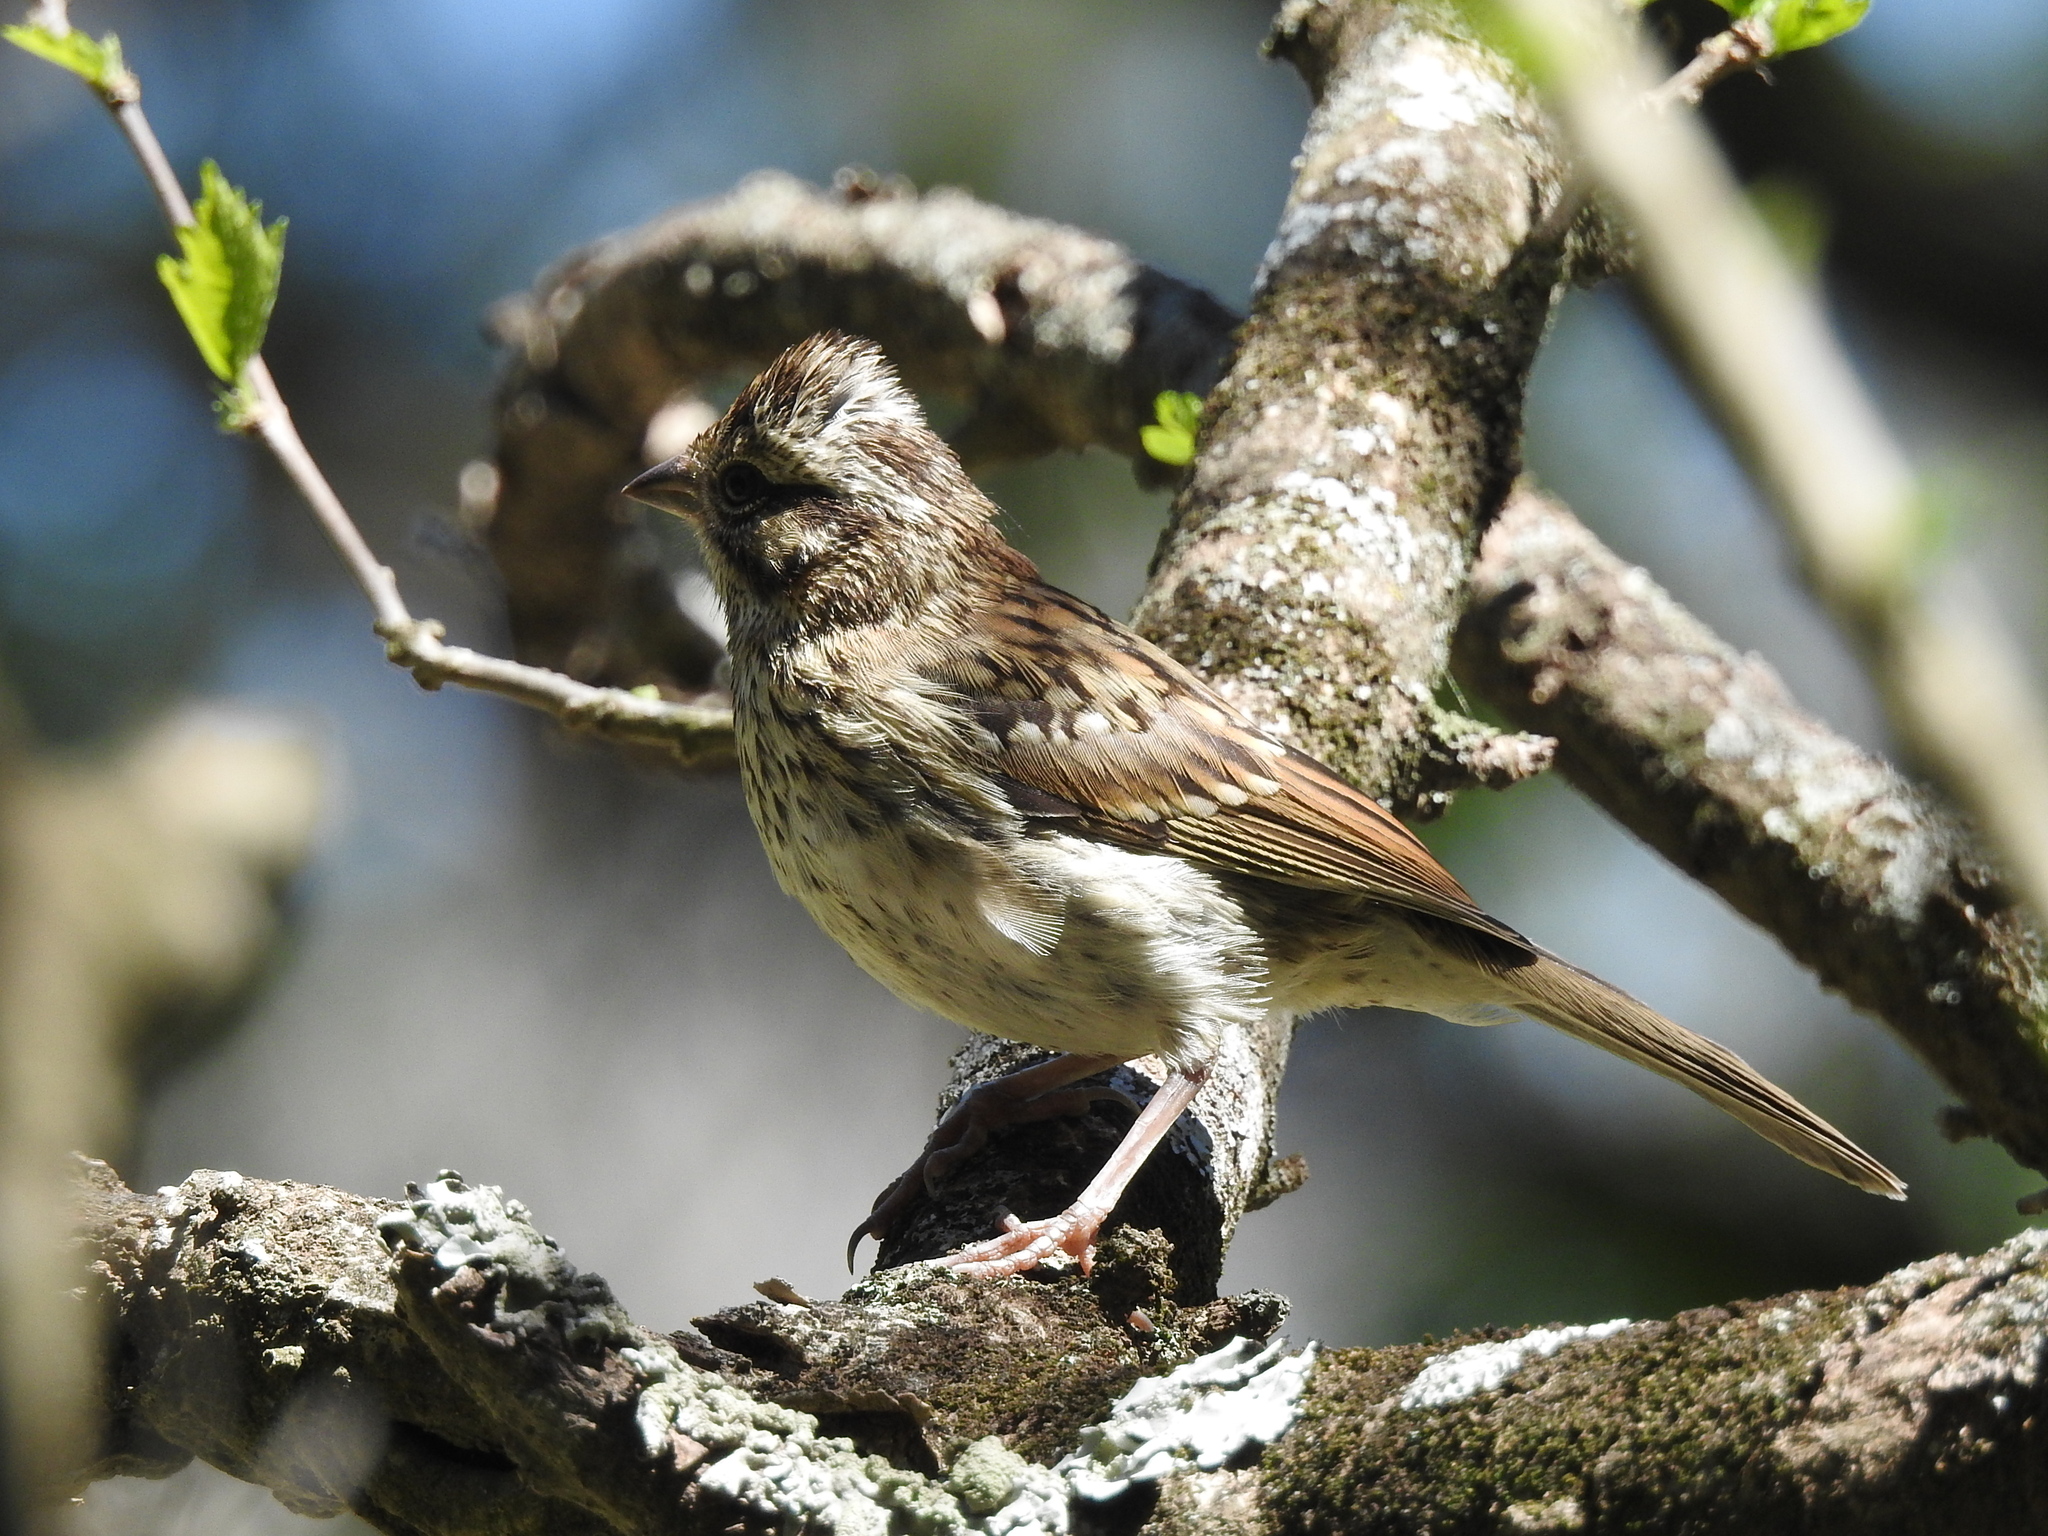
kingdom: Animalia
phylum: Chordata
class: Aves
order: Passeriformes
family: Passerellidae
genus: Zonotrichia
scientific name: Zonotrichia capensis
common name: Rufous-collared sparrow
